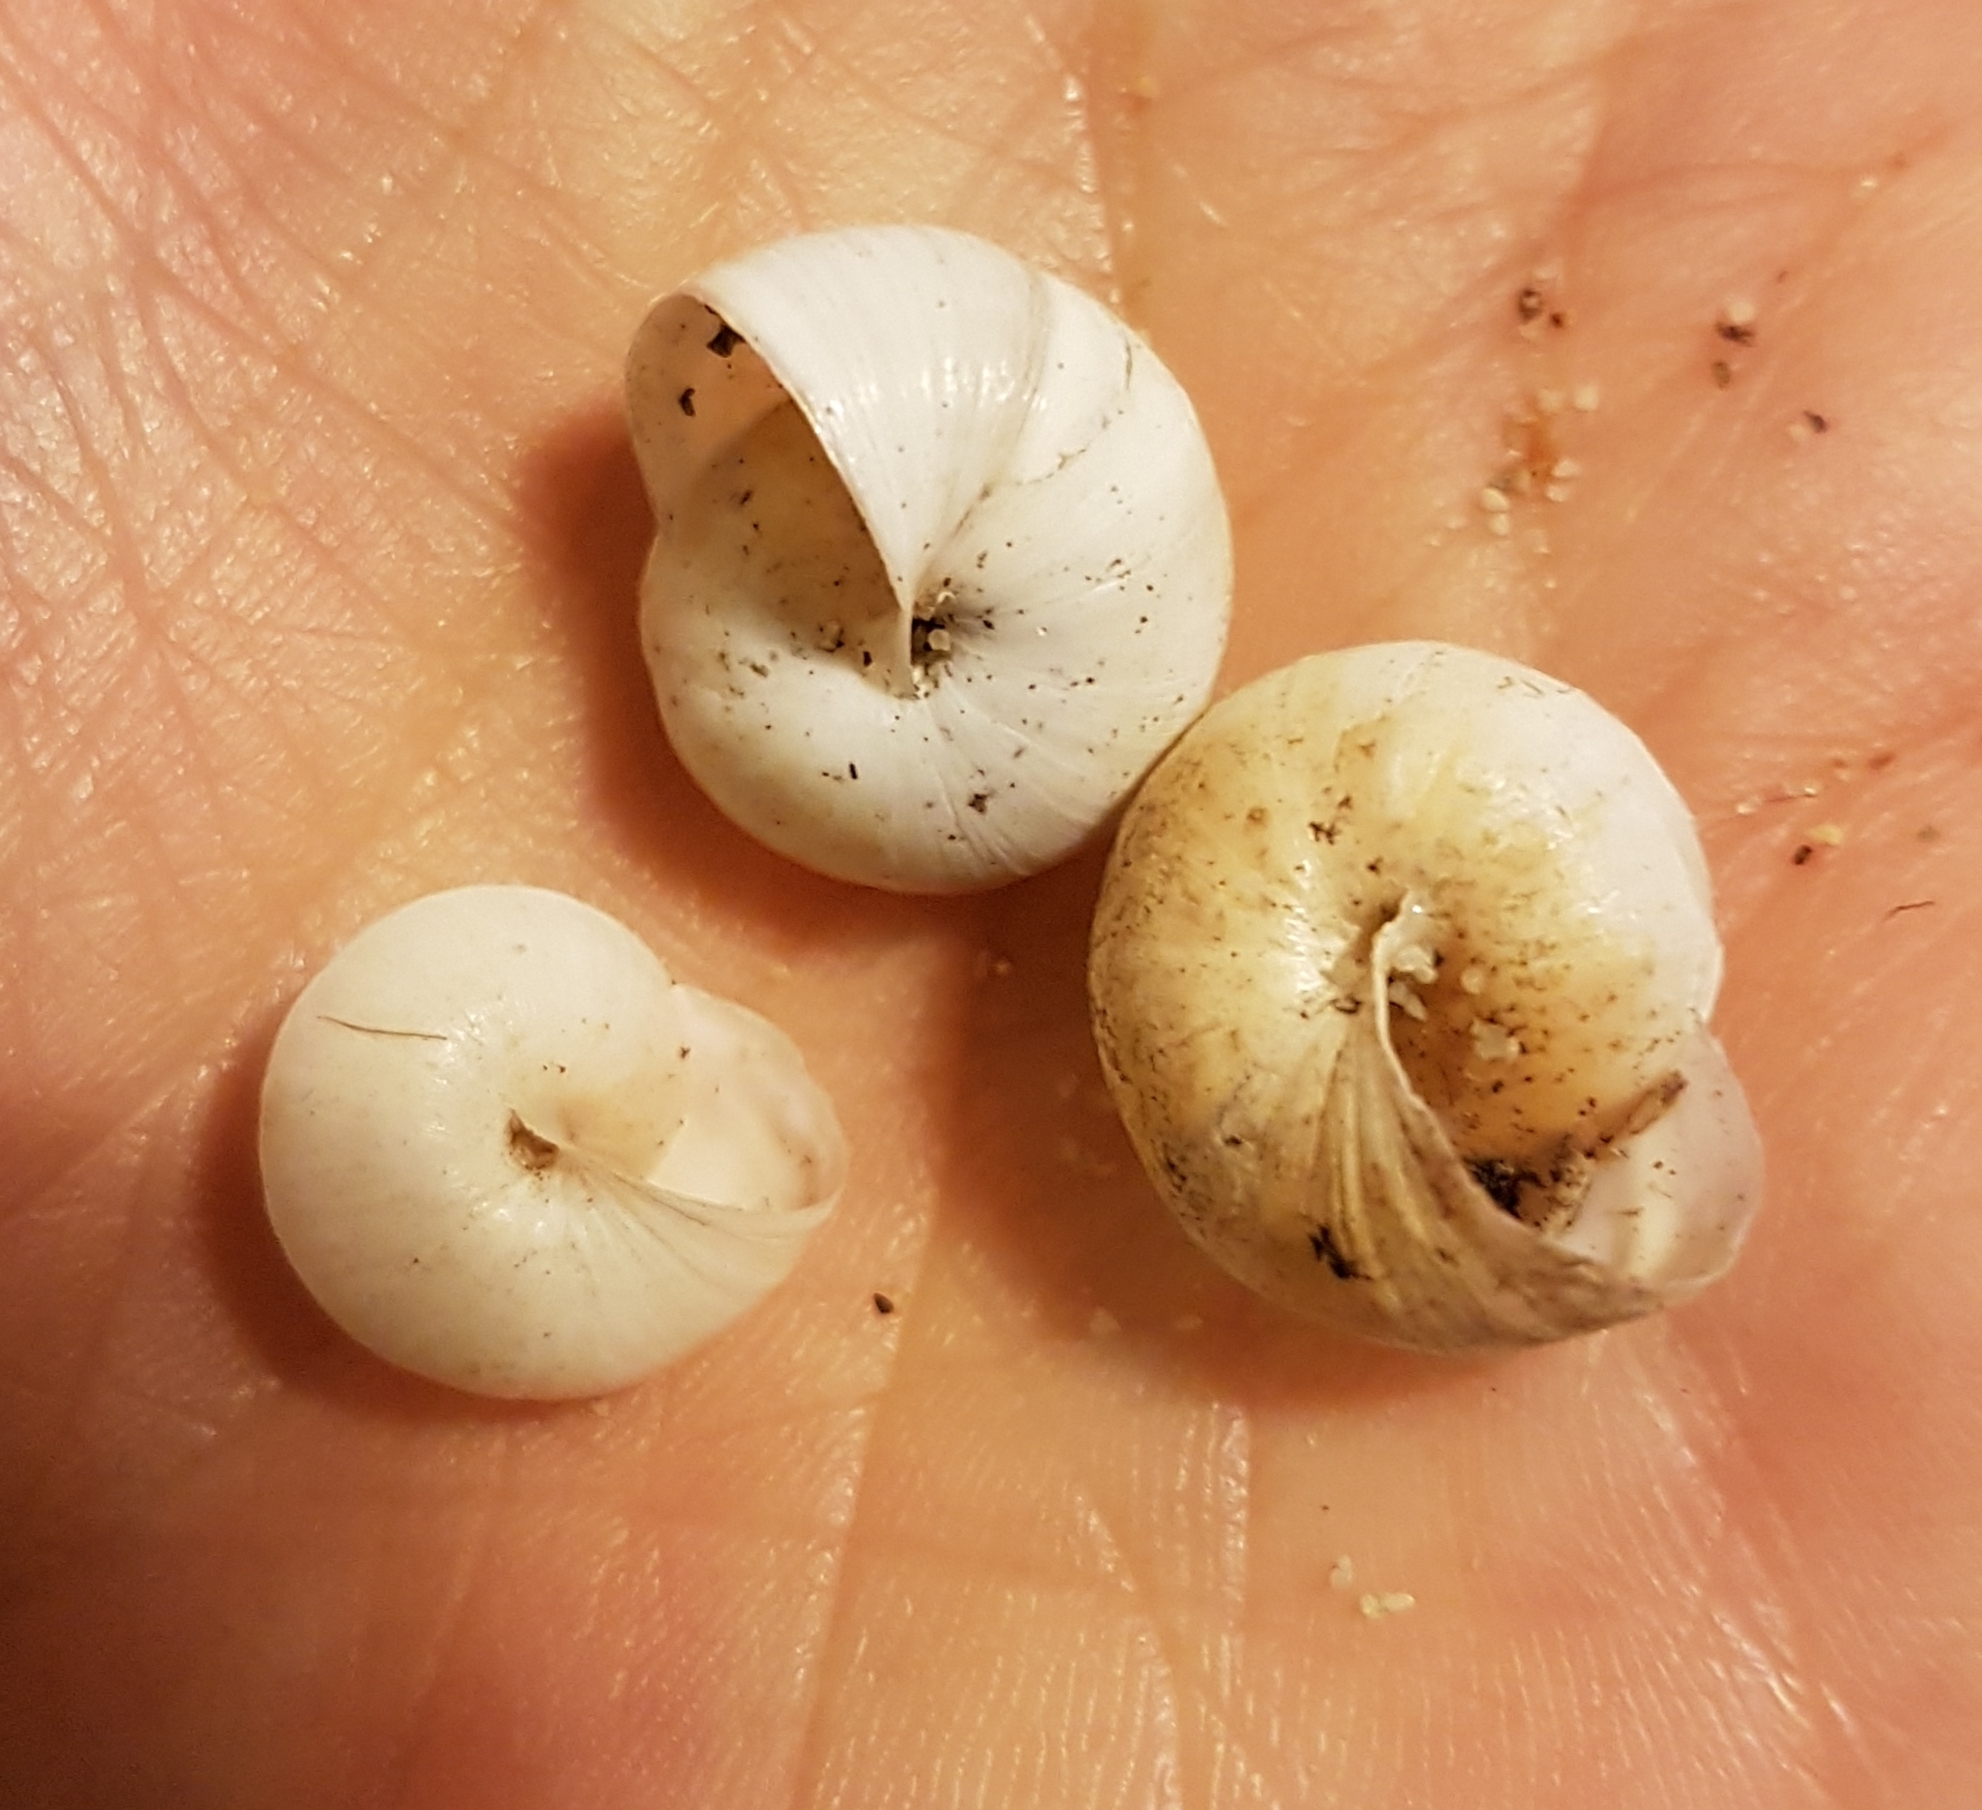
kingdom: Animalia
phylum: Mollusca
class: Gastropoda
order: Stylommatophora
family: Helicidae
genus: Theba
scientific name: Theba pisana
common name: White snail
